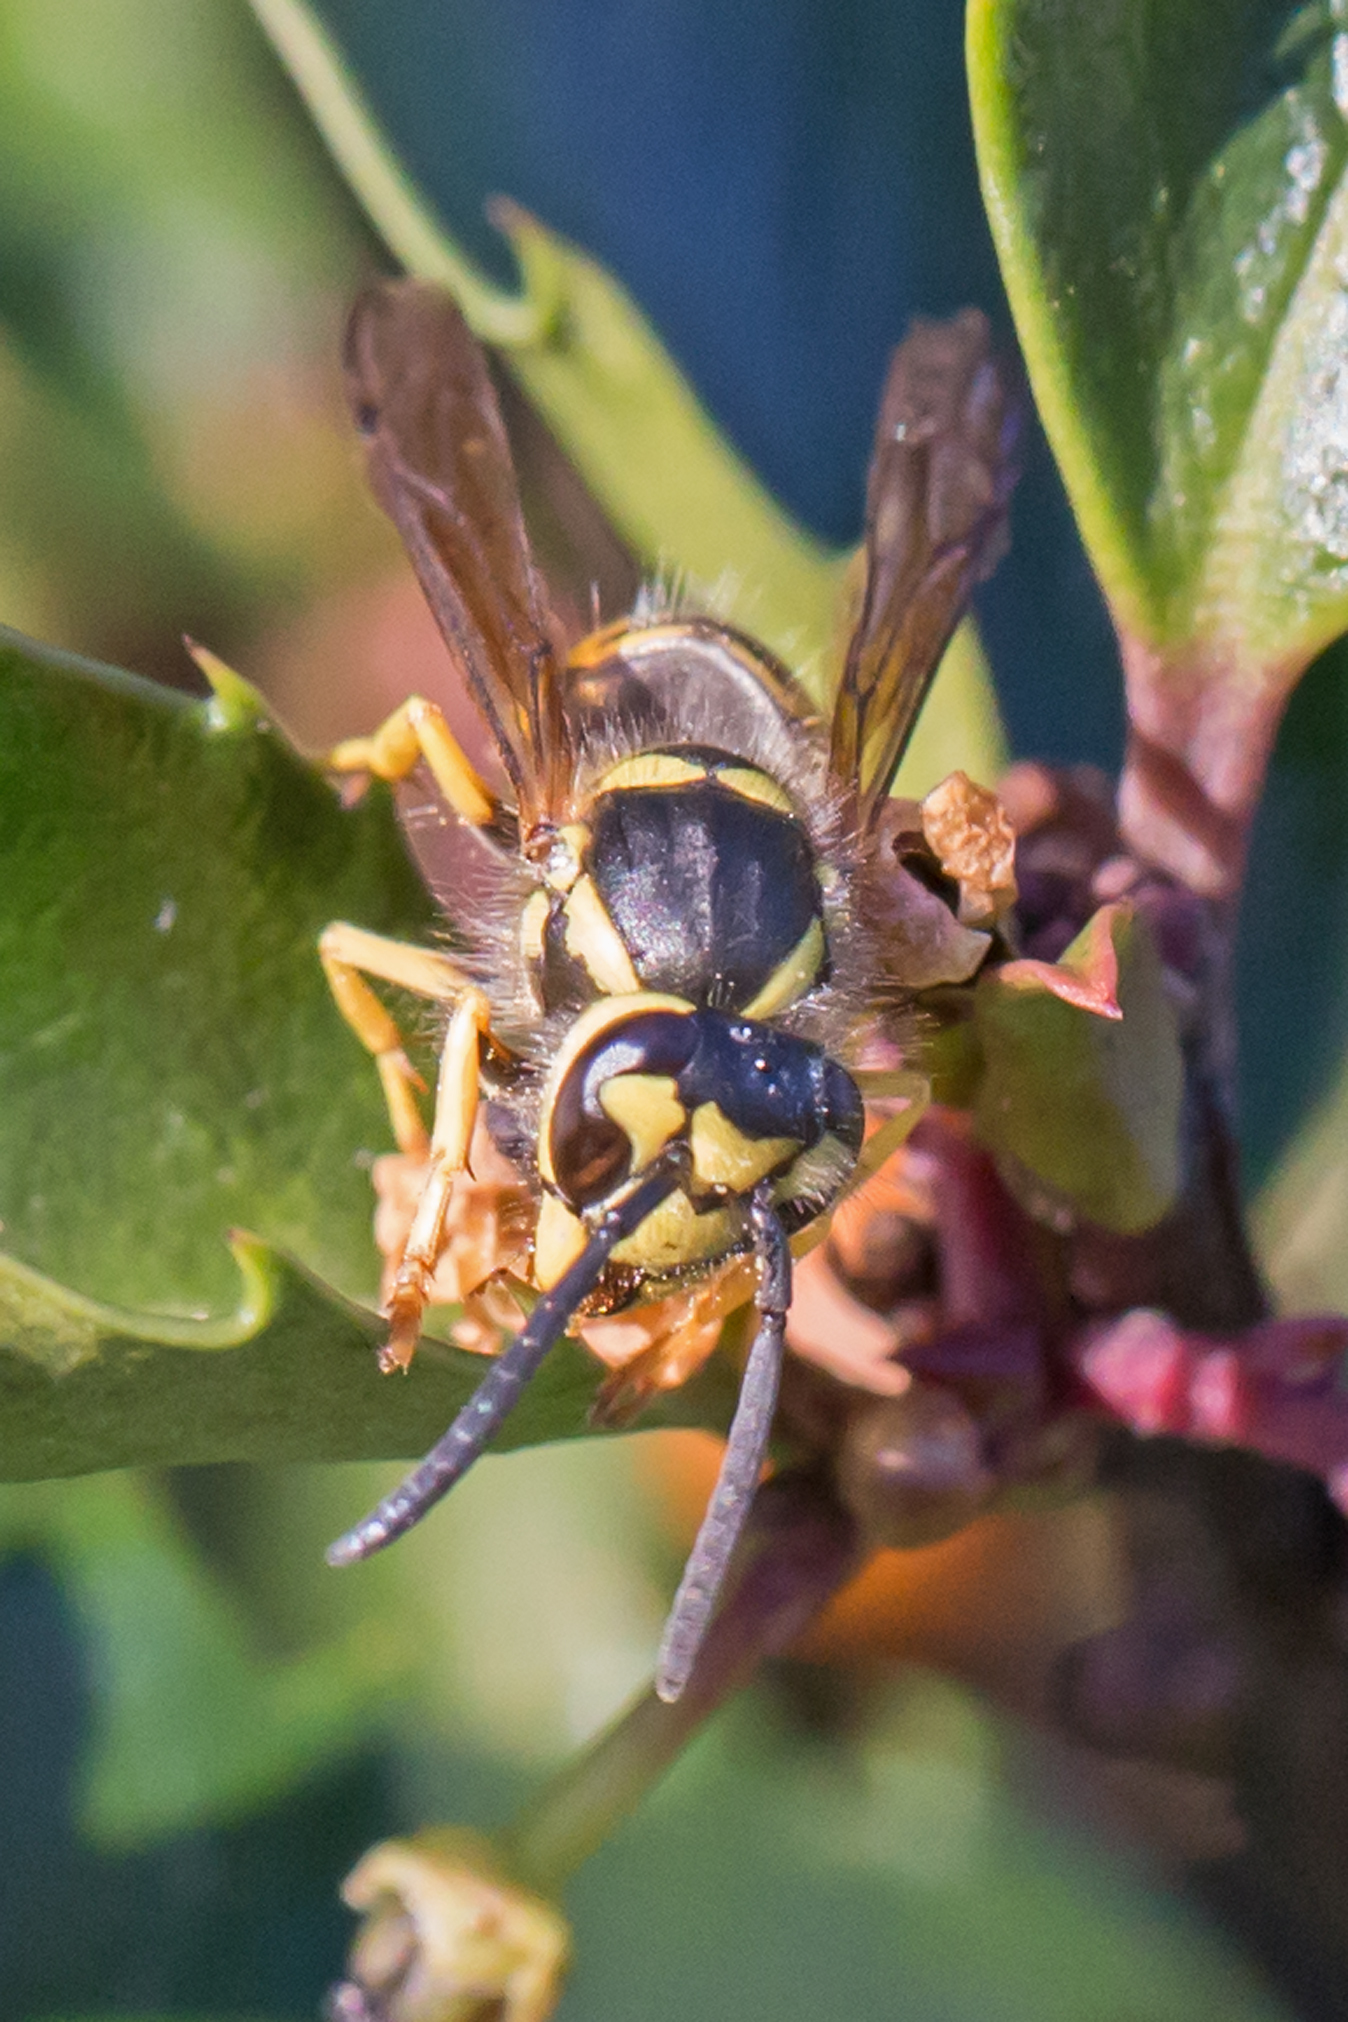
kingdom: Animalia
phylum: Arthropoda
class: Insecta
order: Hymenoptera
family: Vespidae
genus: Vespula
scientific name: Vespula maculifrons
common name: Eastern yellowjacket
